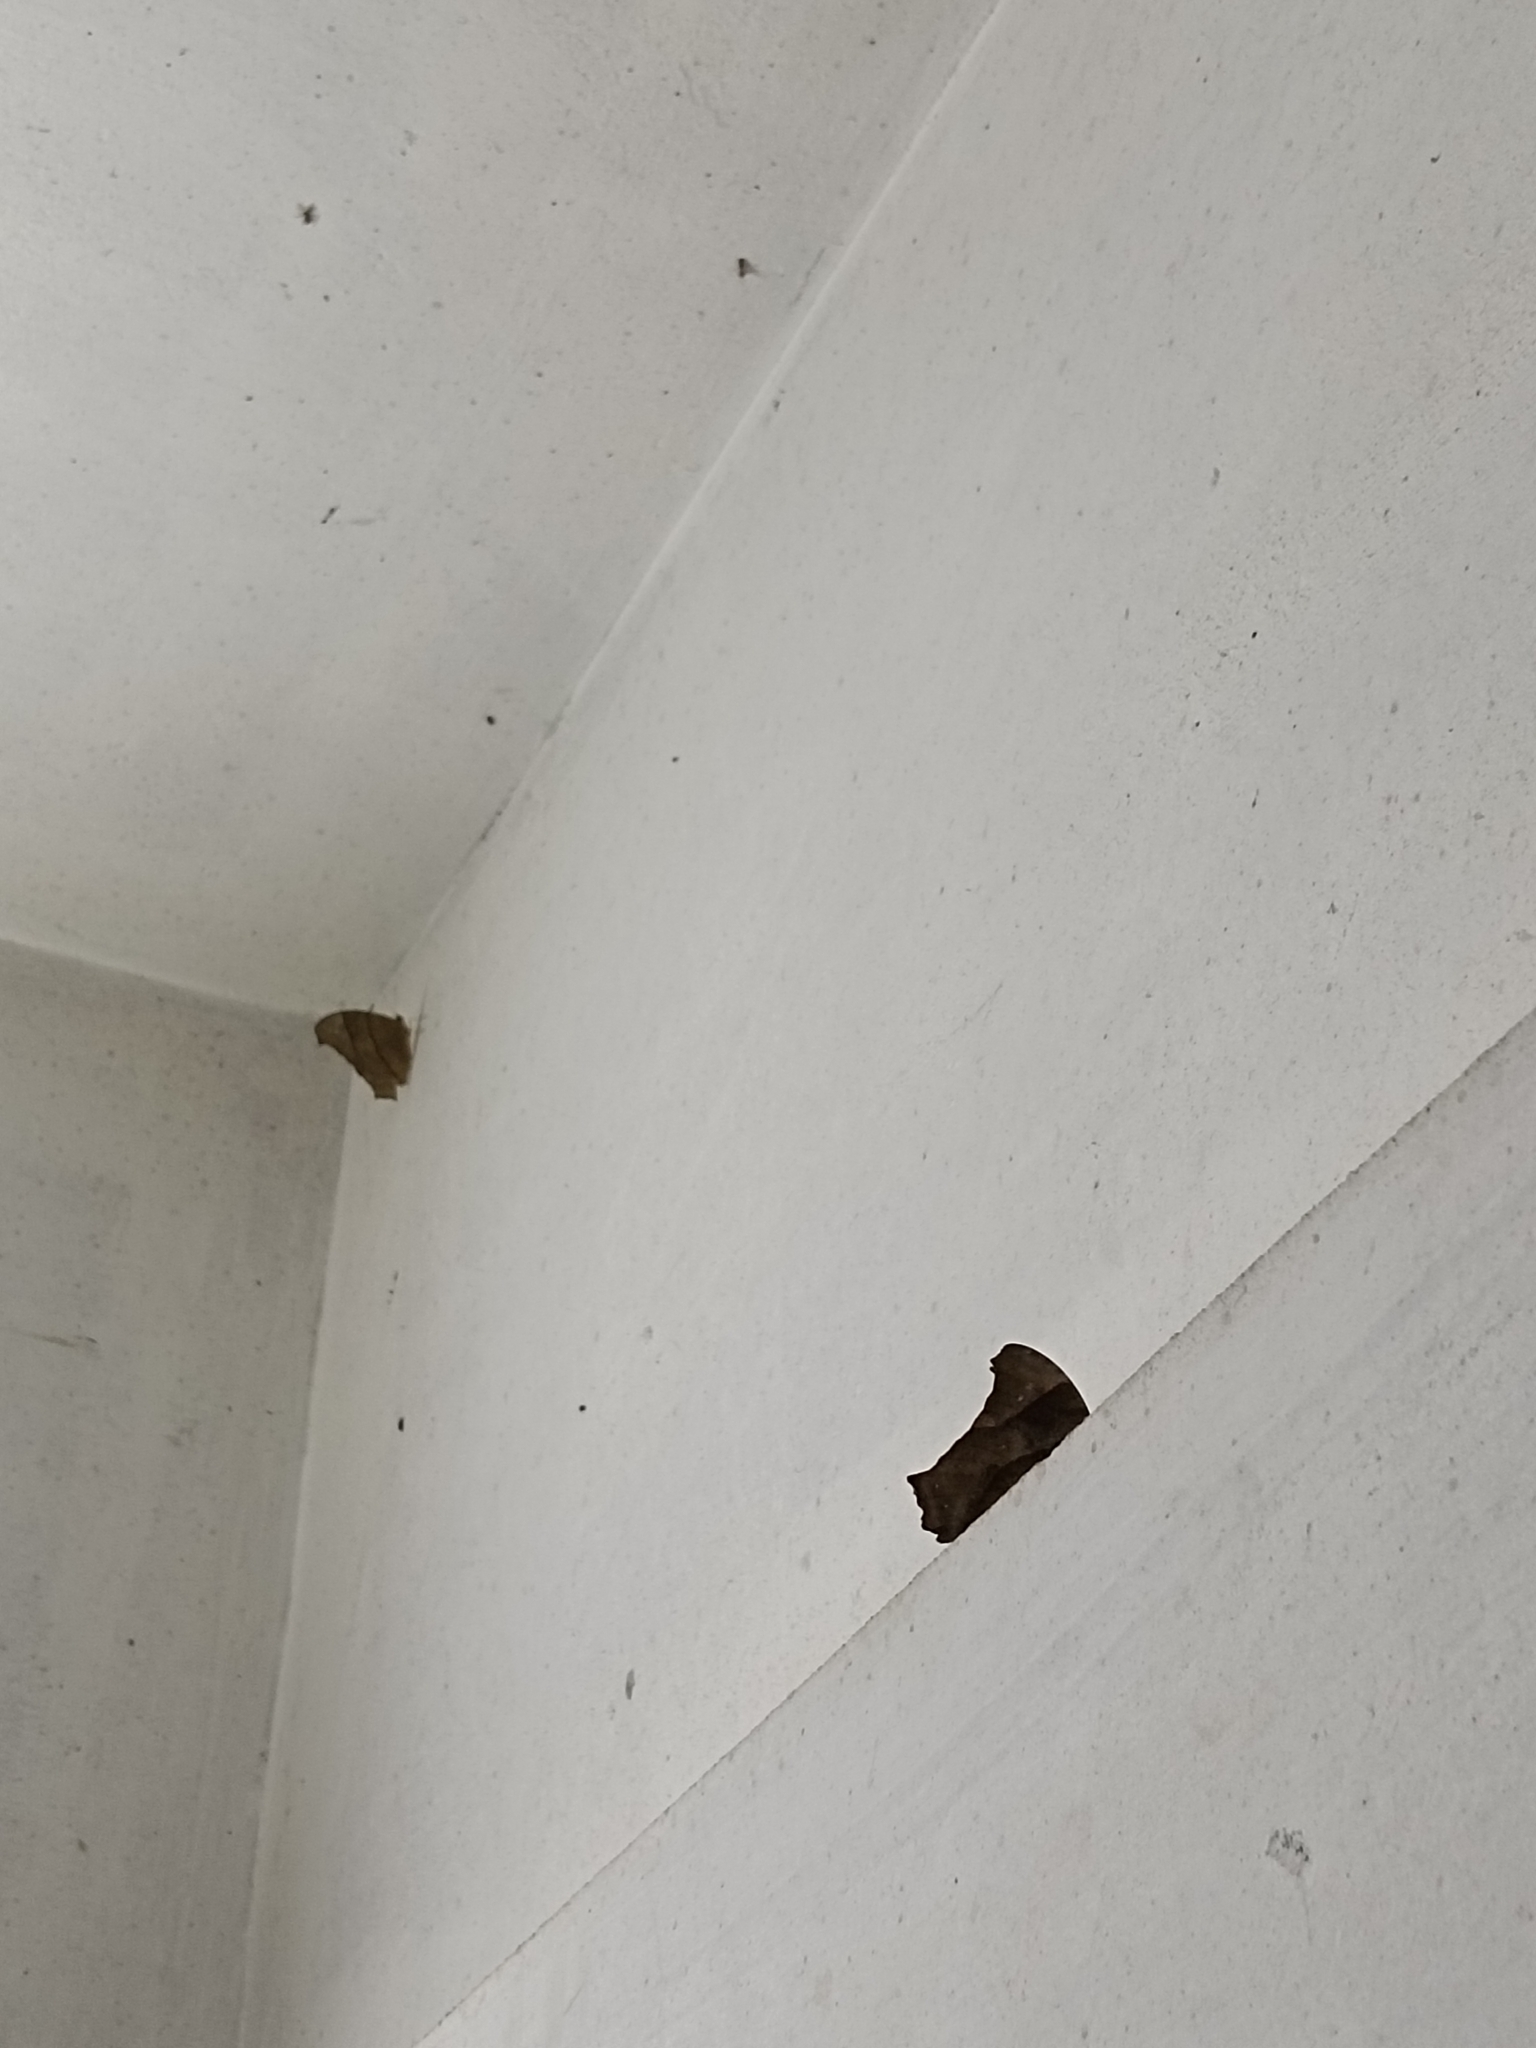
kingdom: Animalia
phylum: Arthropoda
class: Insecta
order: Lepidoptera
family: Nymphalidae
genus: Melanitis
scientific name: Melanitis leda
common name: Twilight brown
